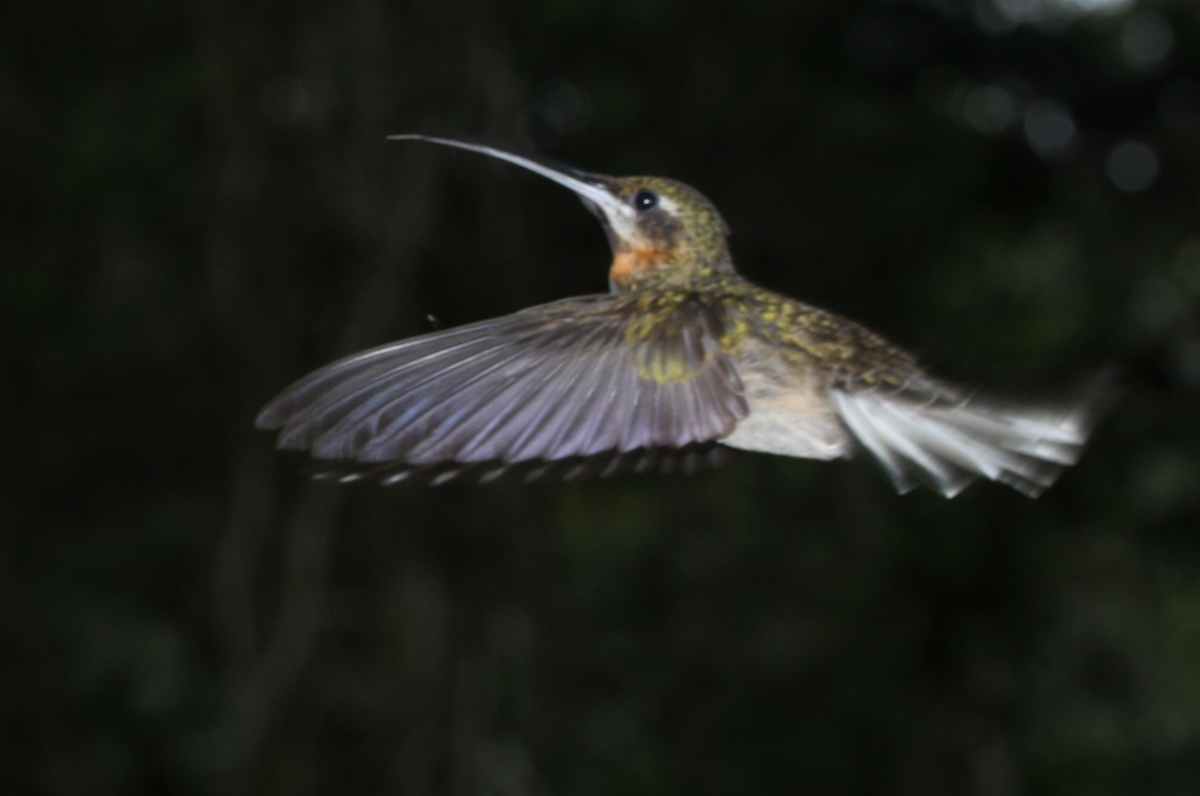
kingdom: Animalia
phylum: Chordata
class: Aves
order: Apodiformes
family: Trochilidae
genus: Threnetes
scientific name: Threnetes leucurus
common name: Pale-tailed barbthroat
